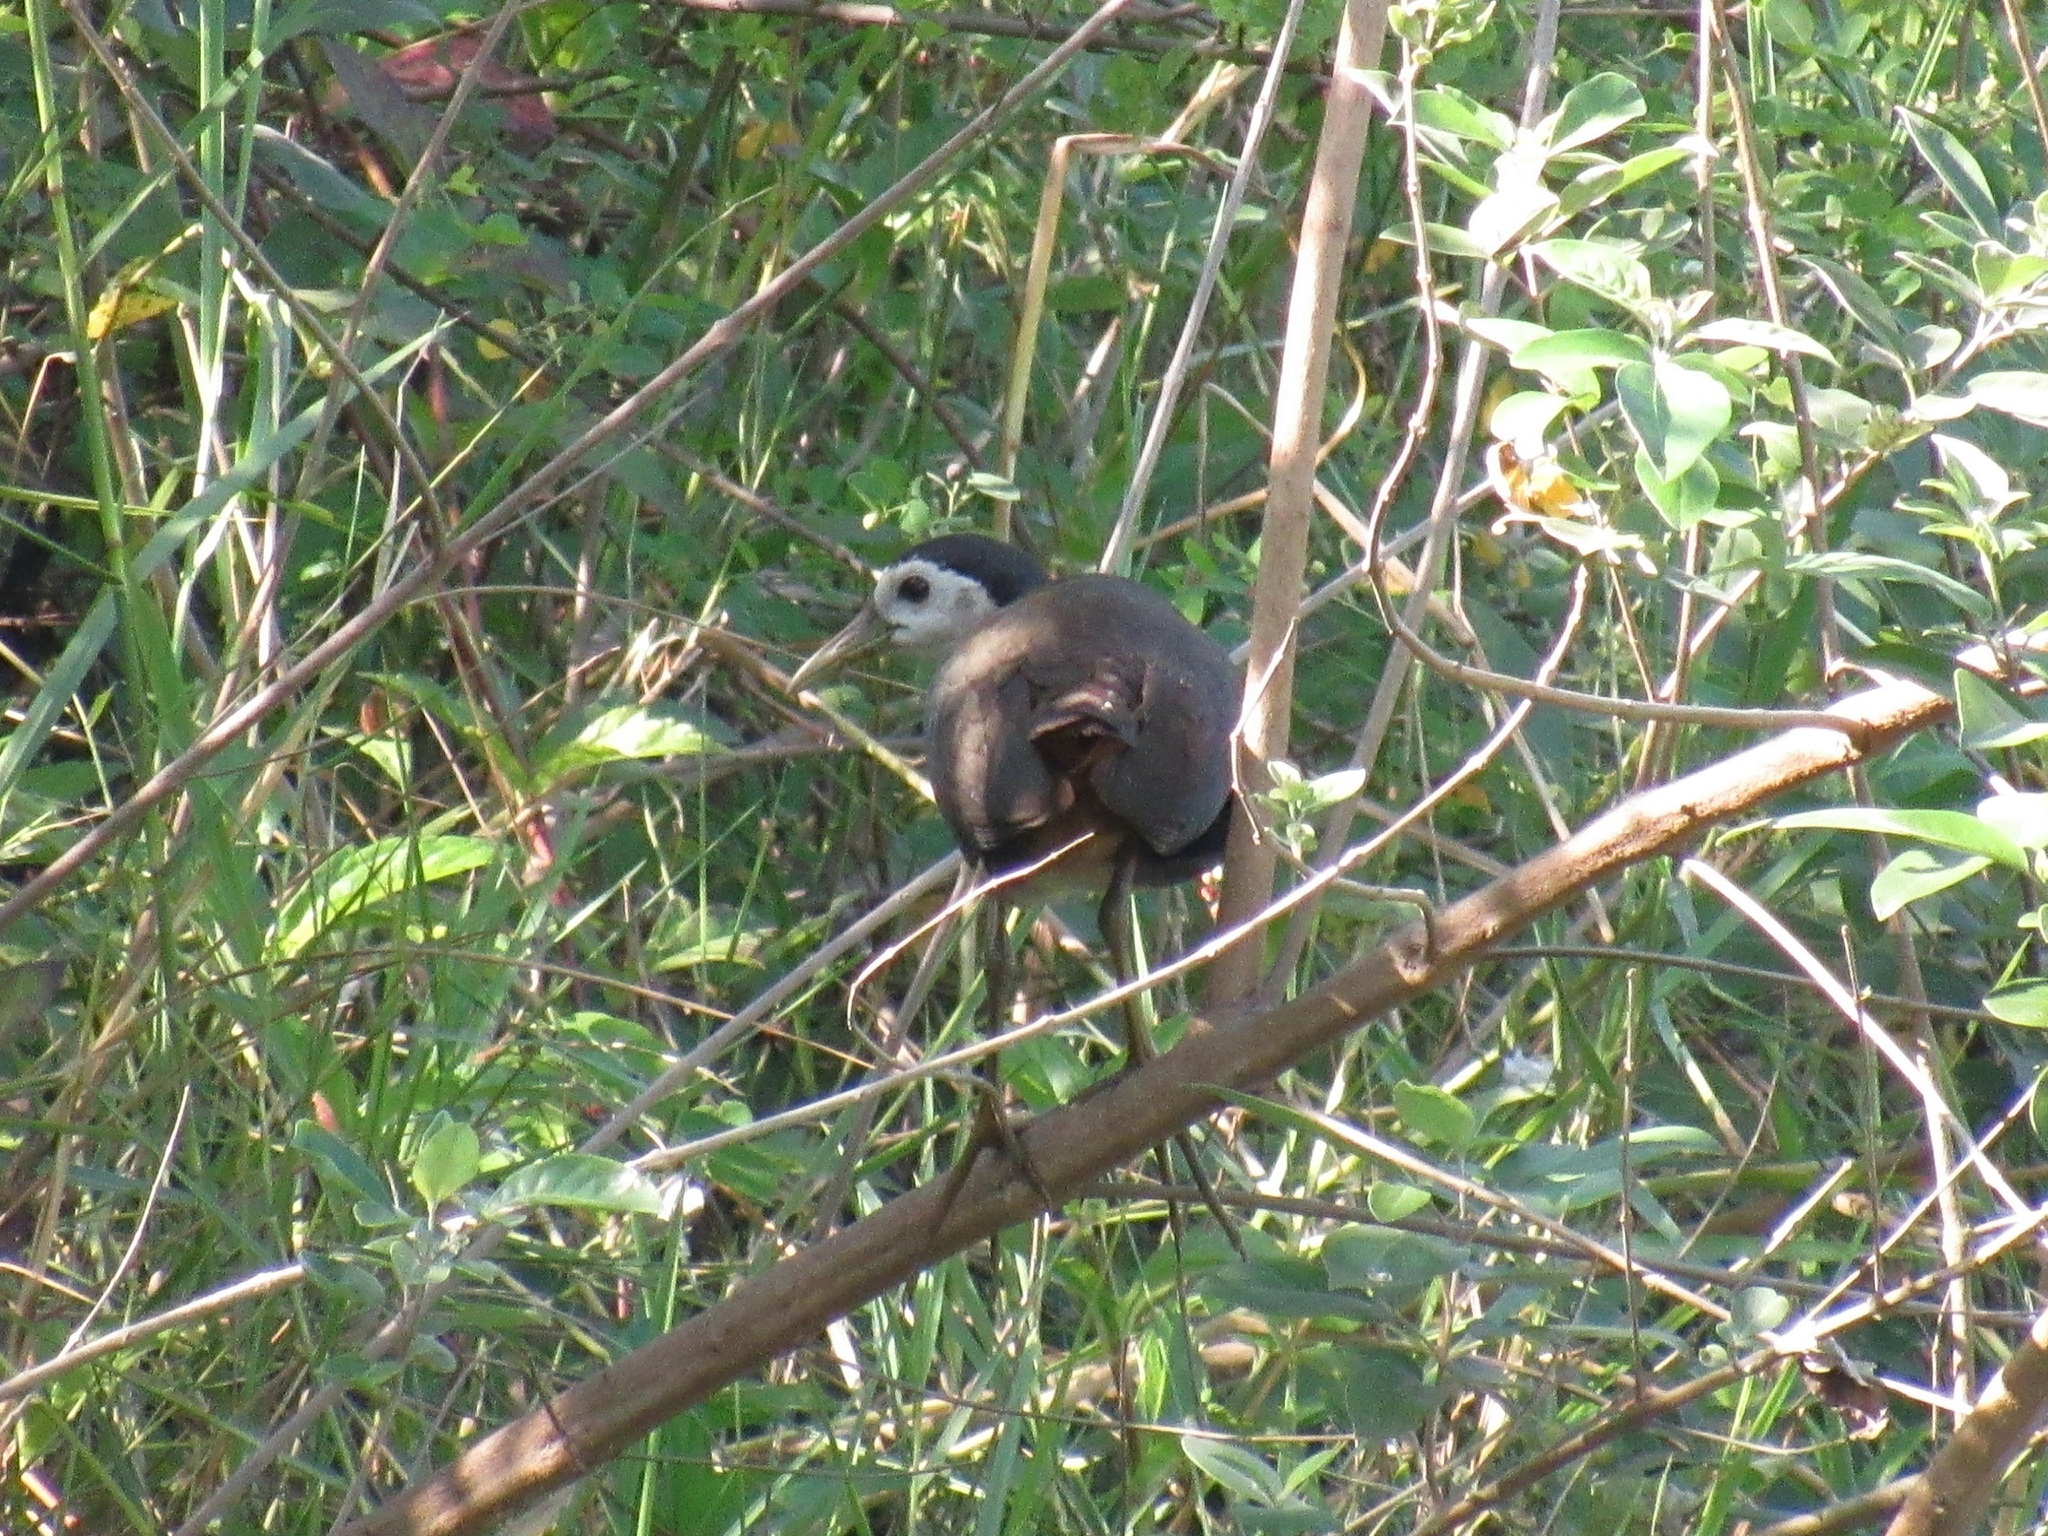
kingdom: Animalia
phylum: Chordata
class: Aves
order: Gruiformes
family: Rallidae
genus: Amaurornis
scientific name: Amaurornis phoenicurus
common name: White-breasted waterhen
